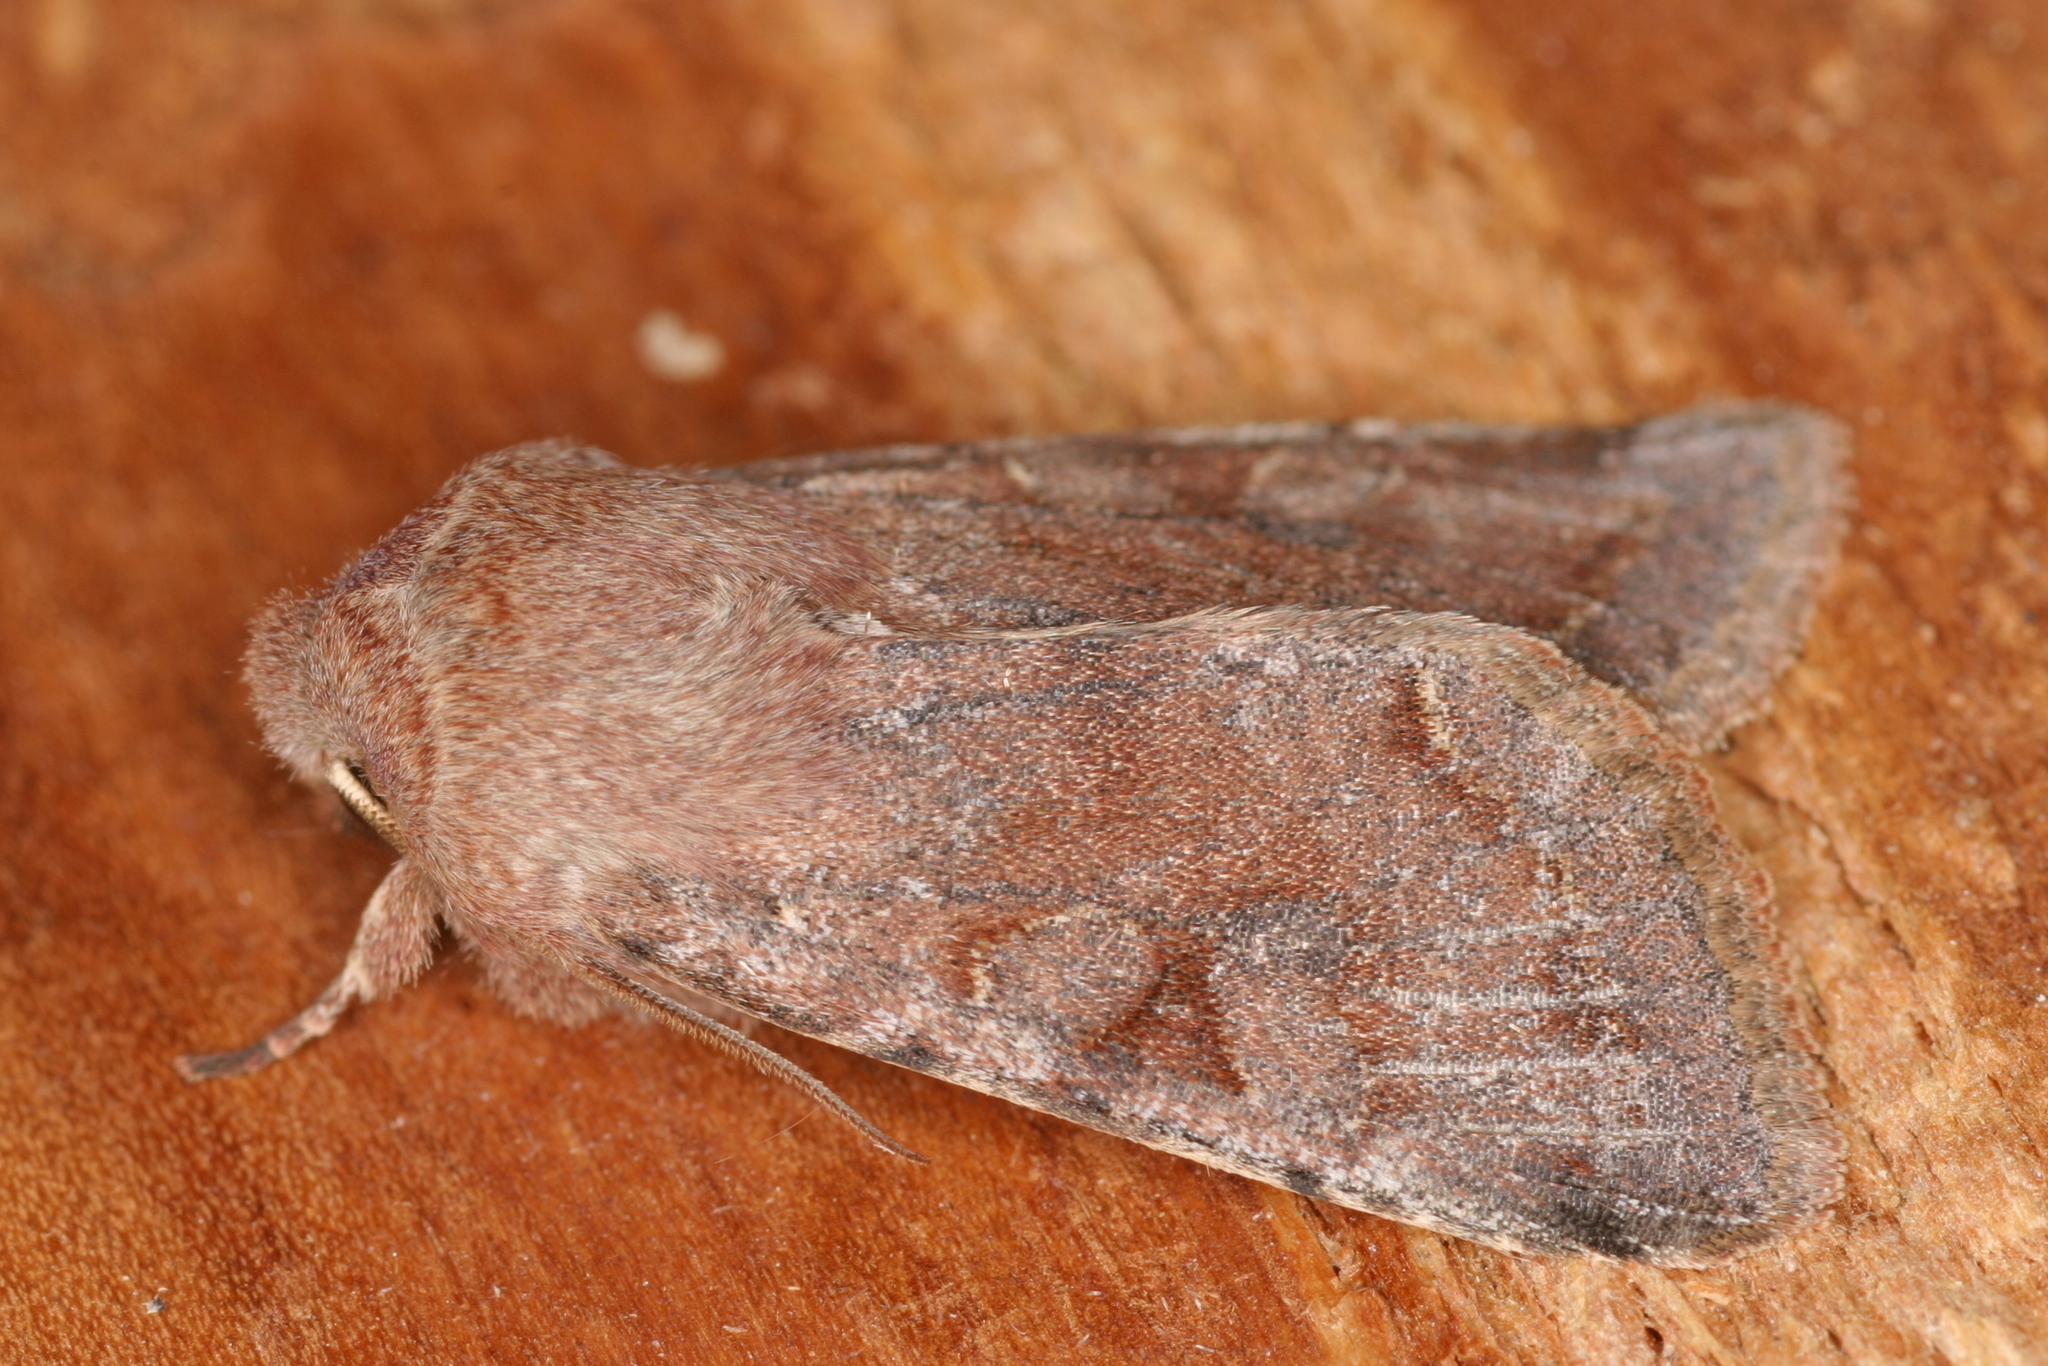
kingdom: Animalia
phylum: Arthropoda
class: Insecta
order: Lepidoptera
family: Noctuidae
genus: Orthosia
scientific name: Orthosia incerta
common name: Clouded drab
